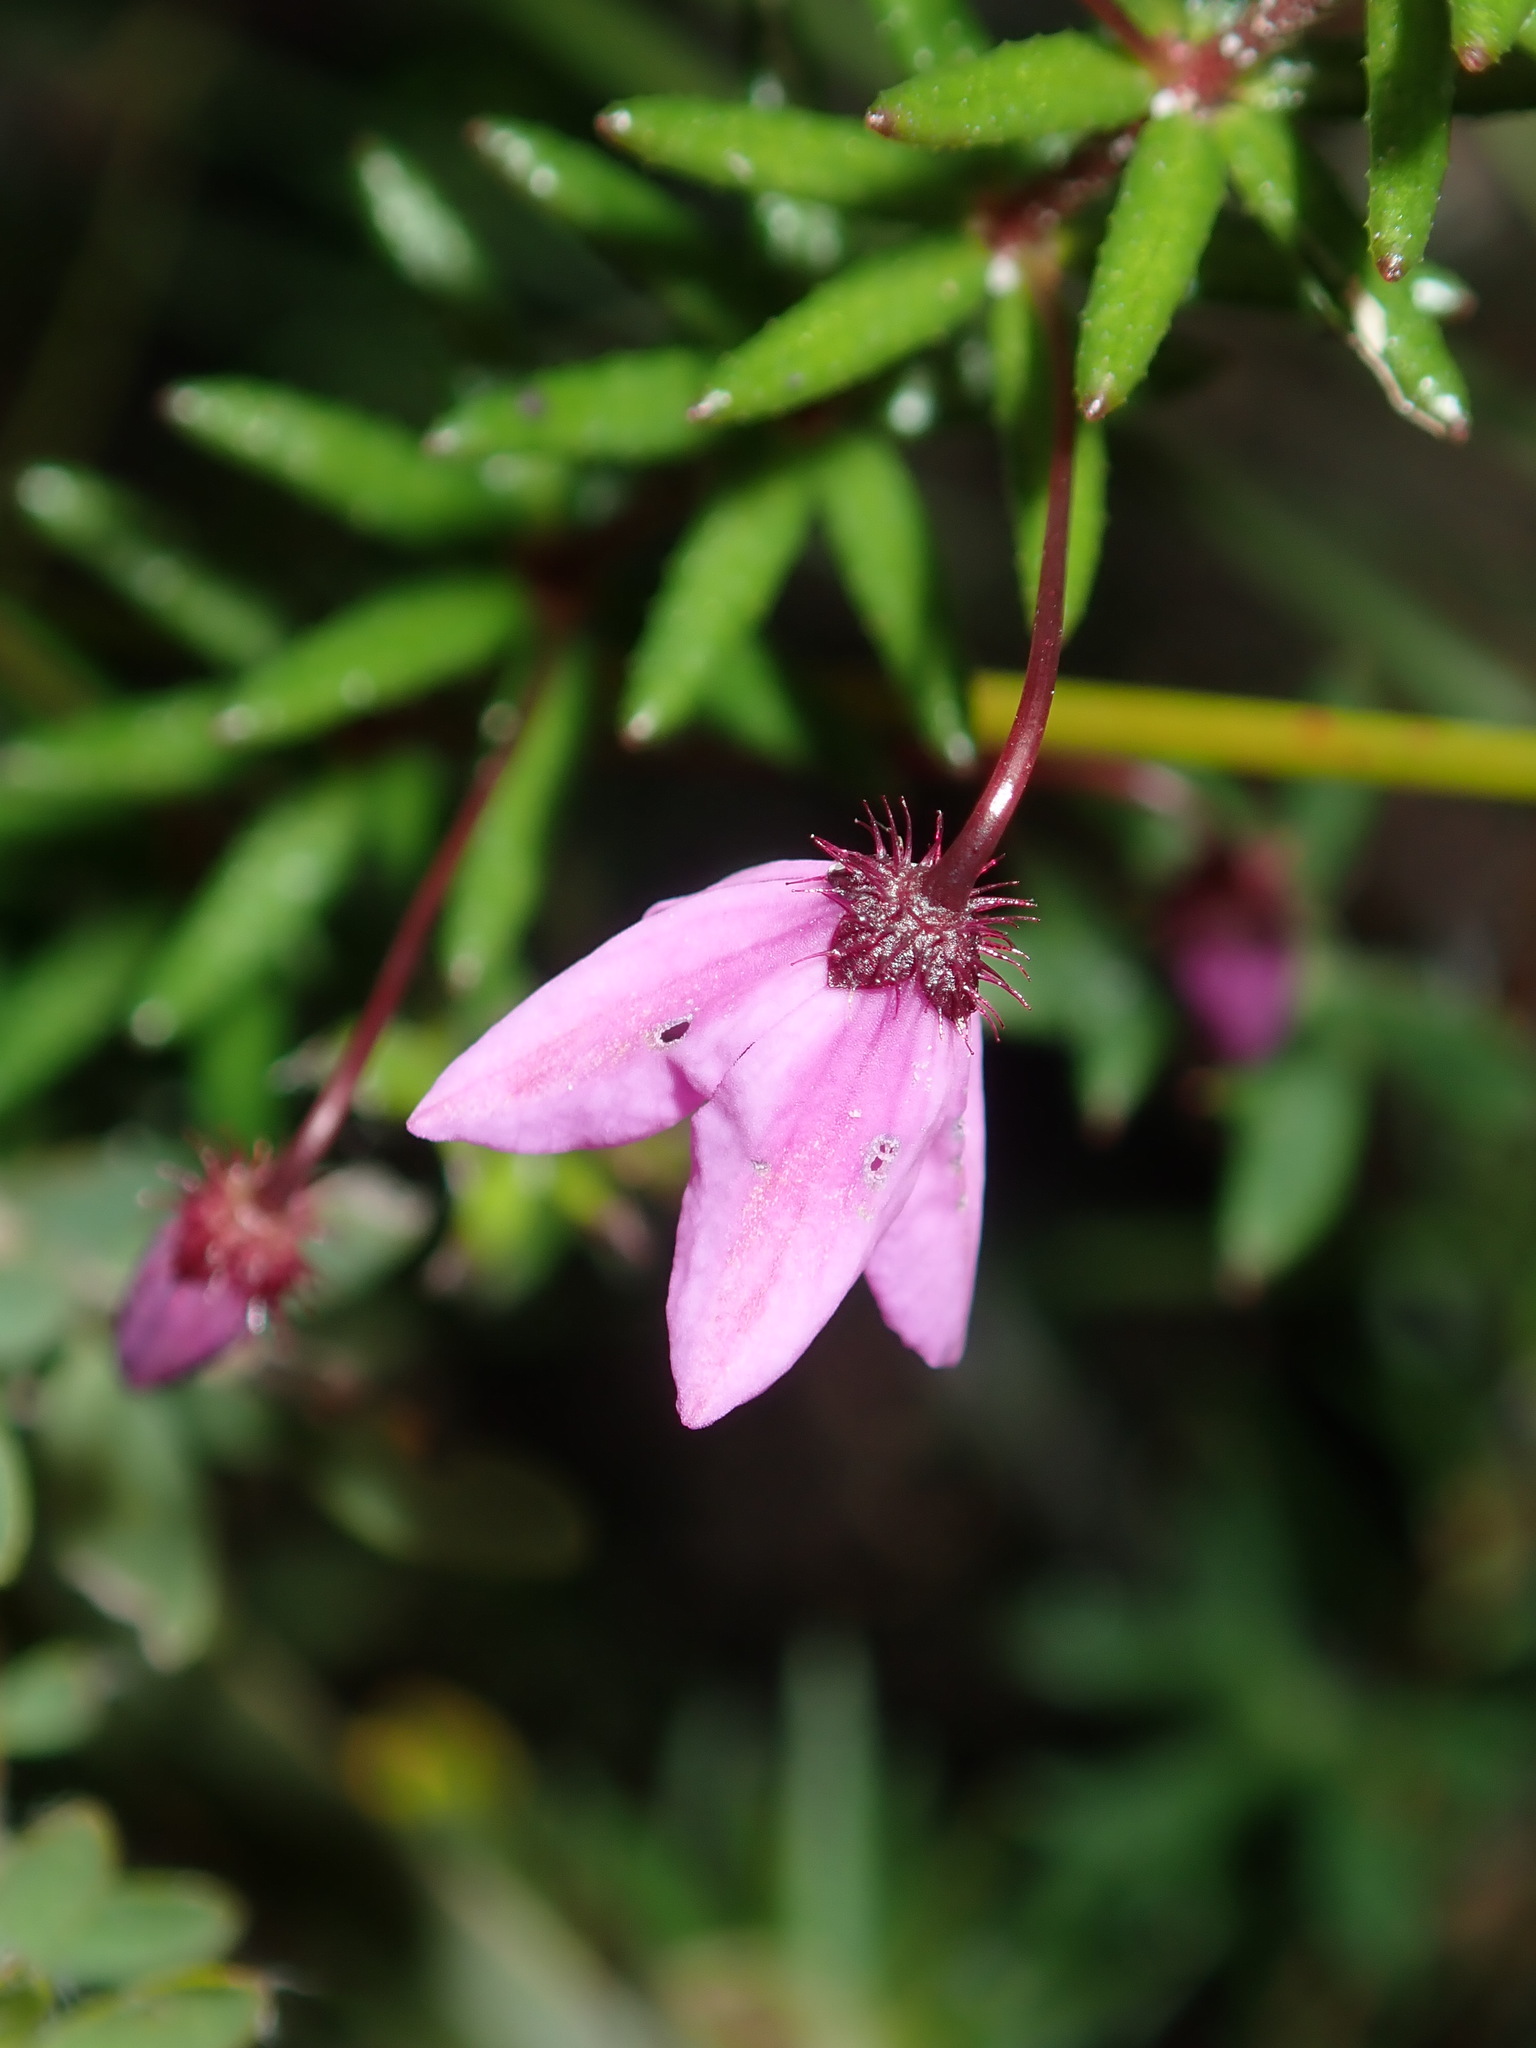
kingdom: Plantae
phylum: Tracheophyta
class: Magnoliopsida
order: Oxalidales
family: Elaeocarpaceae
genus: Tetratheca
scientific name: Tetratheca ericifolia
